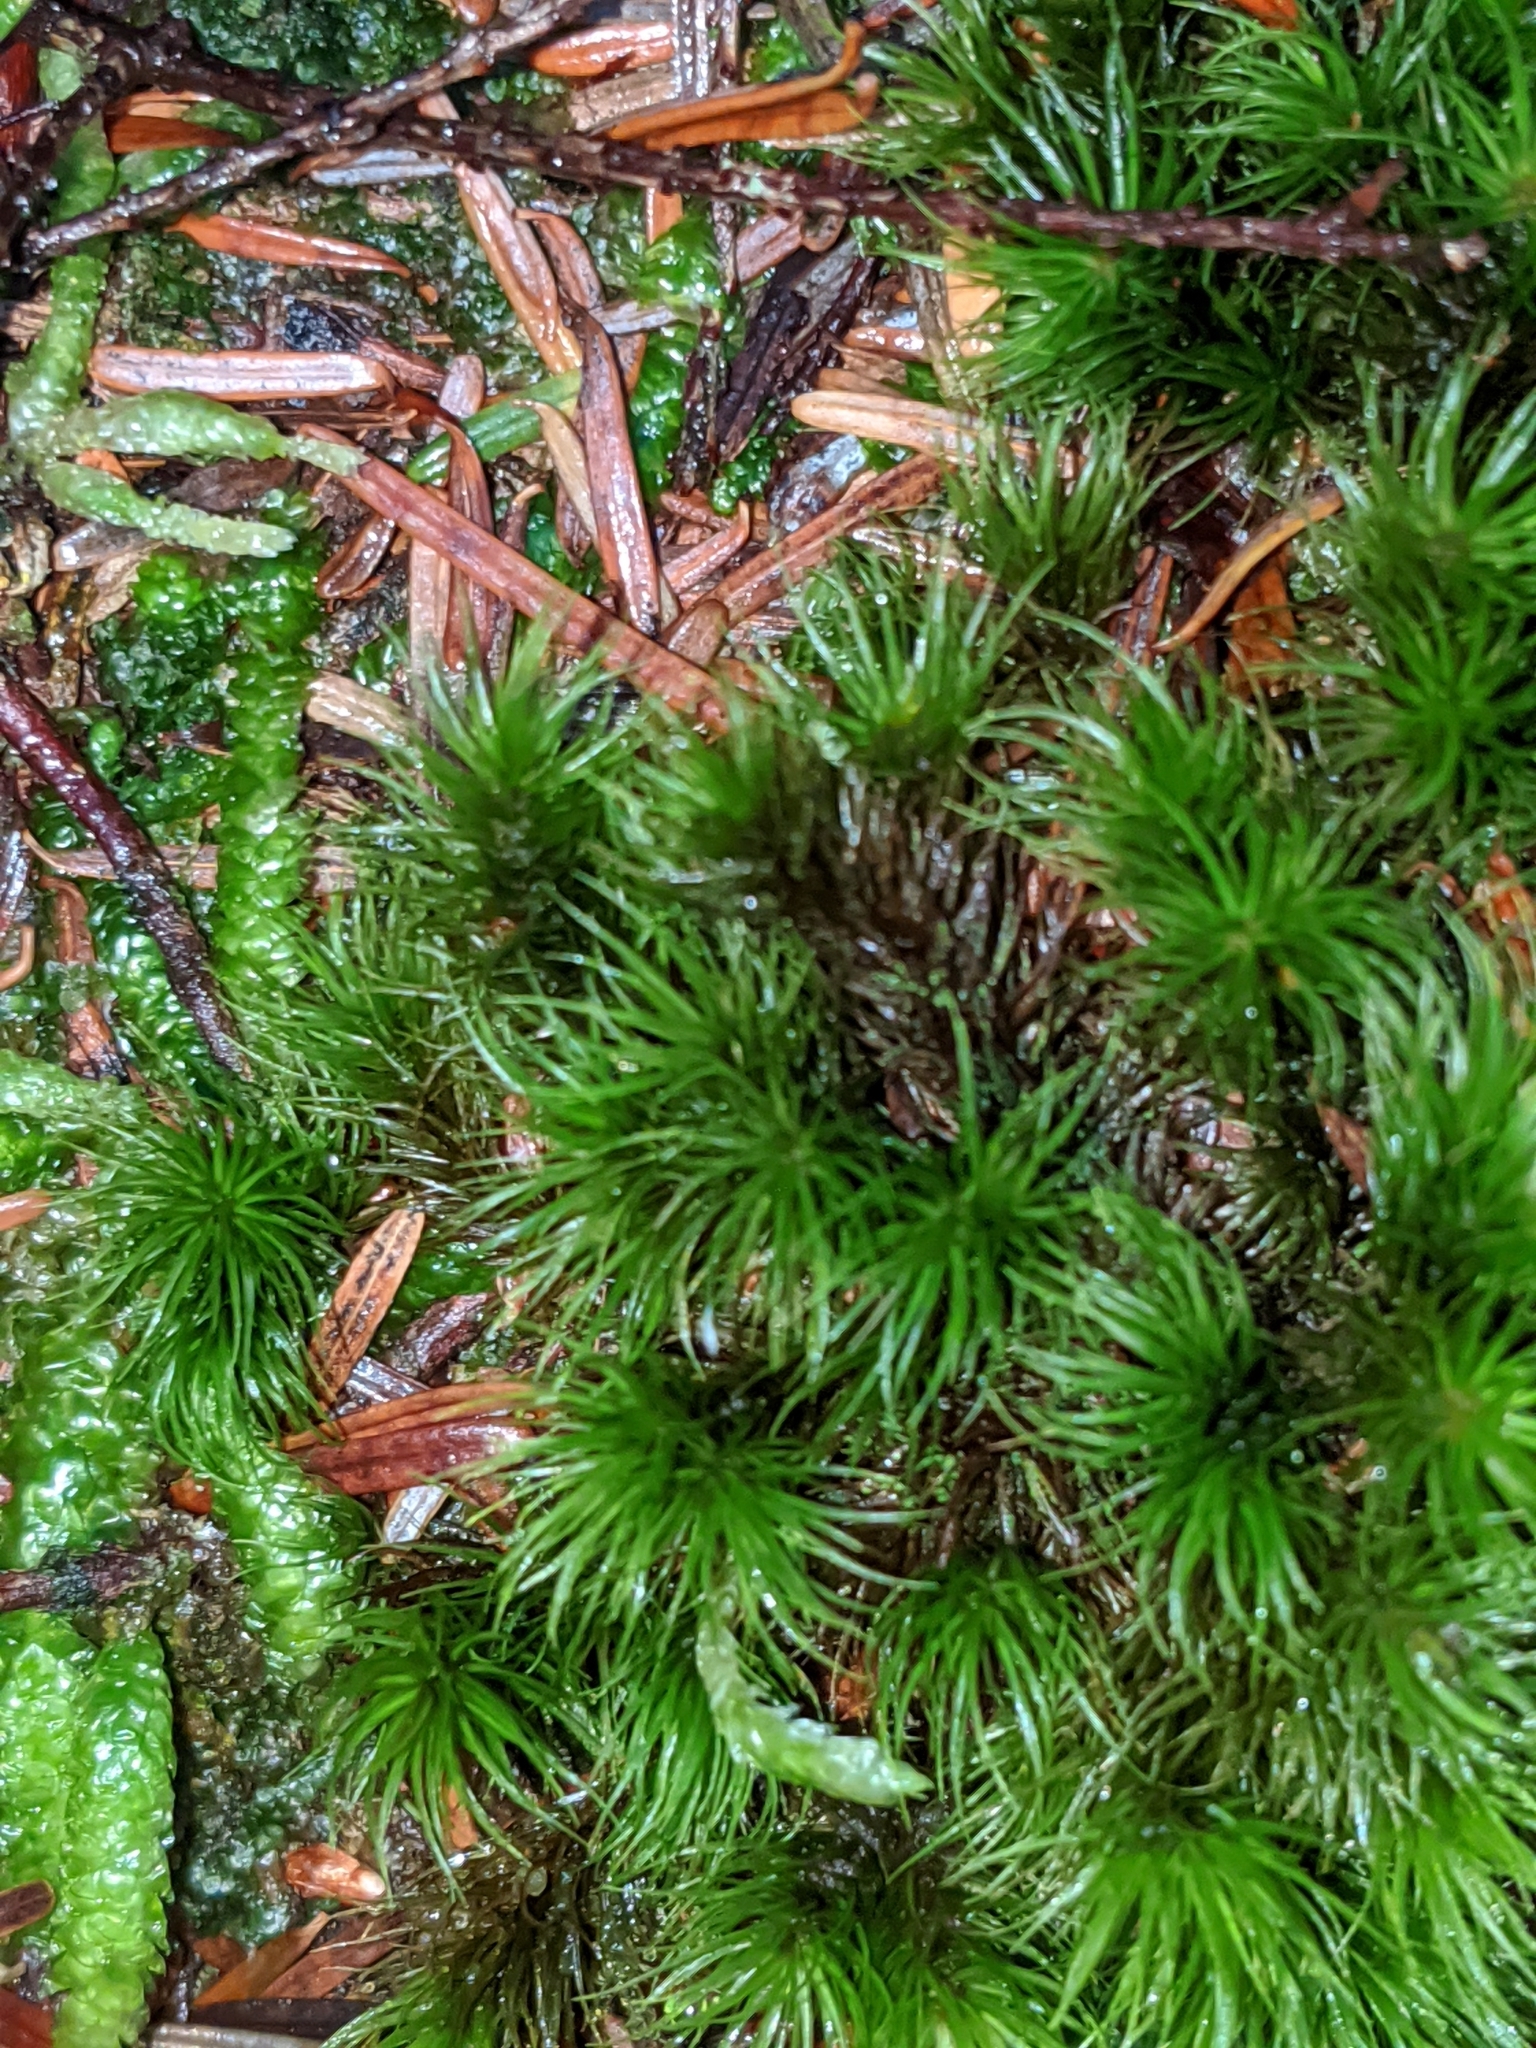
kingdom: Plantae
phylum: Bryophyta
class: Bryopsida
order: Dicranales
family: Dicranaceae
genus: Dicranum
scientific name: Dicranum scoparium
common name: Broom fork-moss
